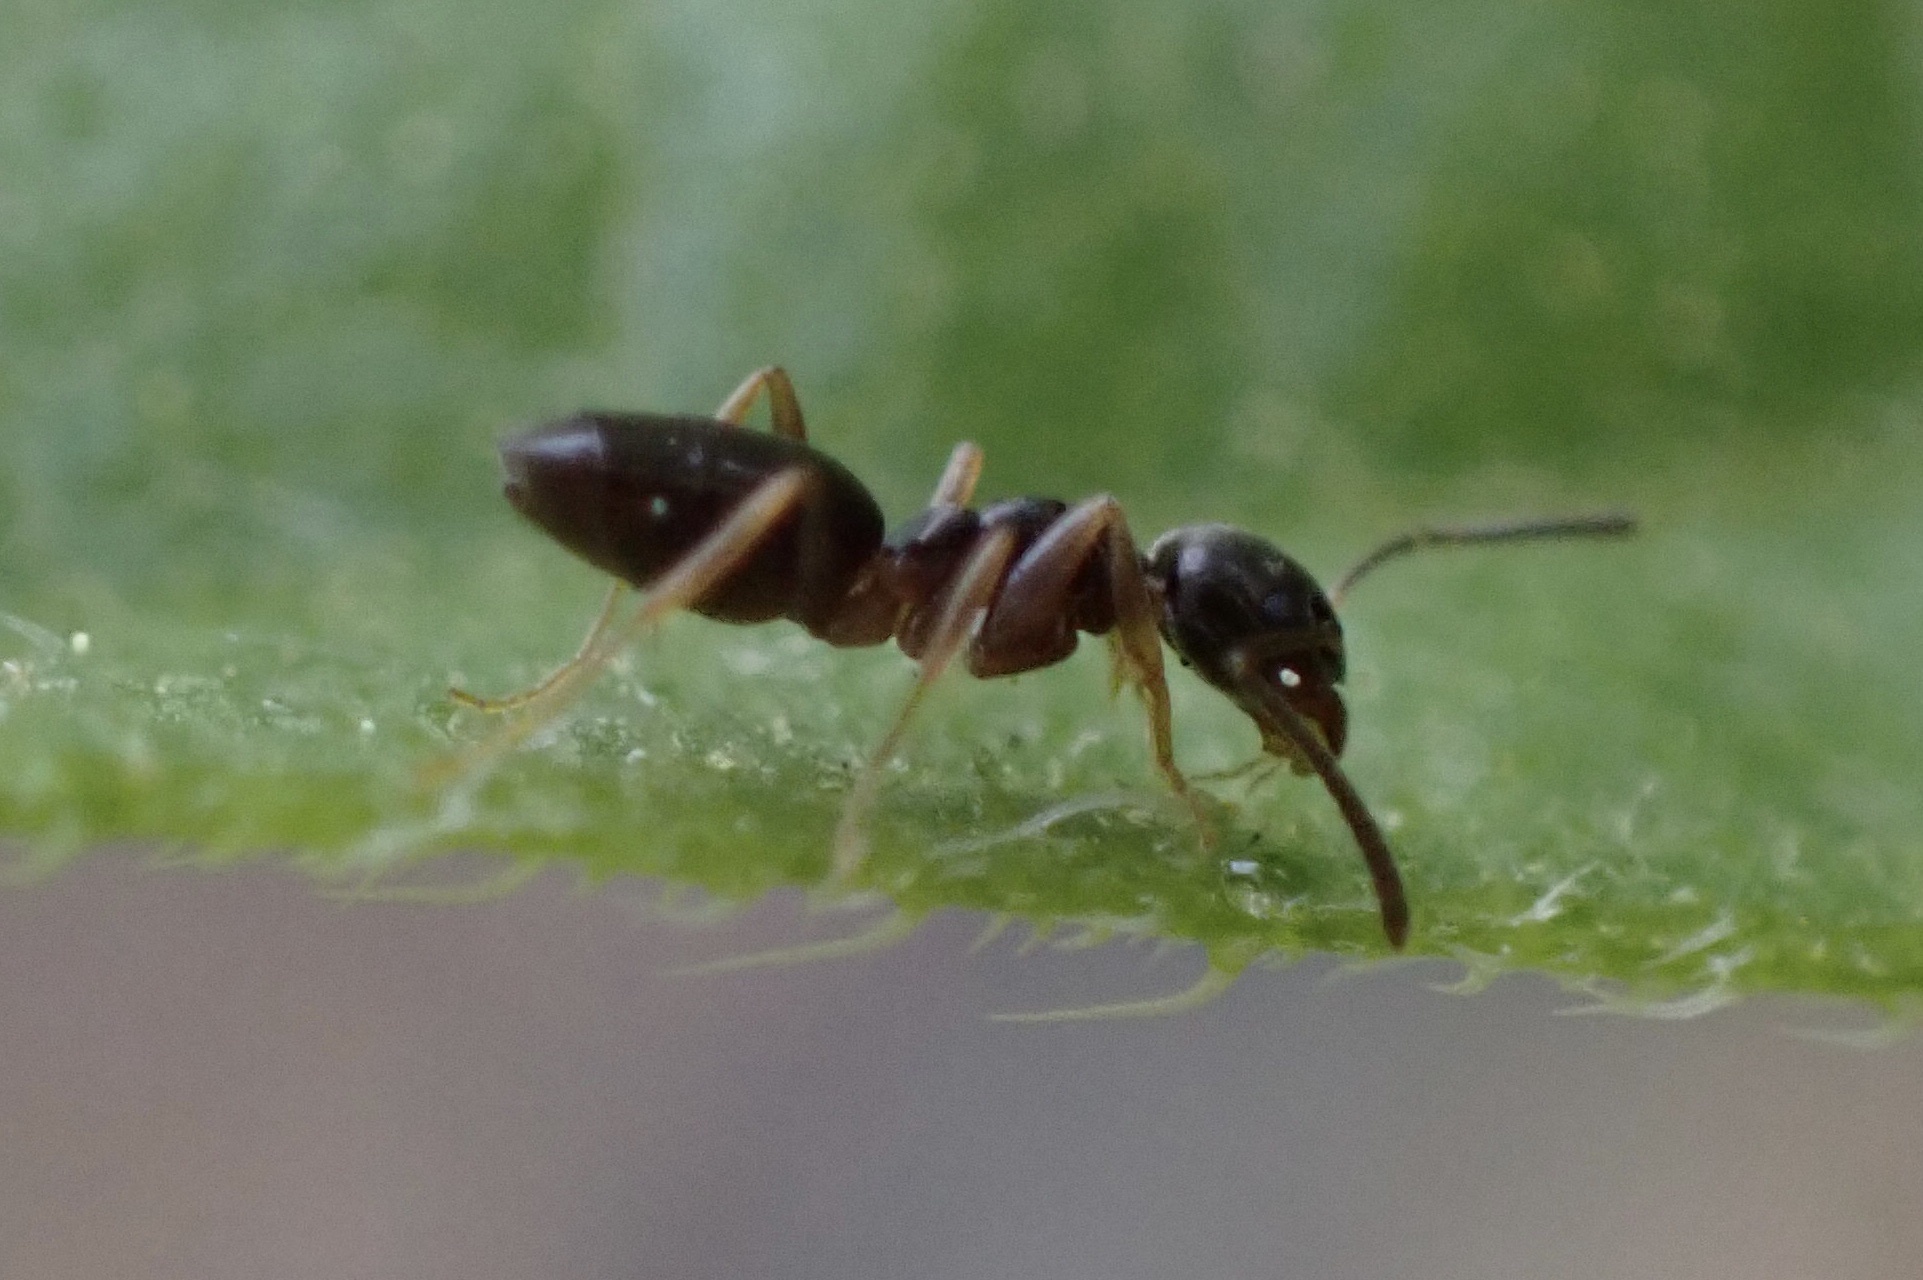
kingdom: Animalia
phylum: Arthropoda
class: Insecta
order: Hymenoptera
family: Formicidae
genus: Tapinoma
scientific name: Tapinoma sessile
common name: Odorous house ant
